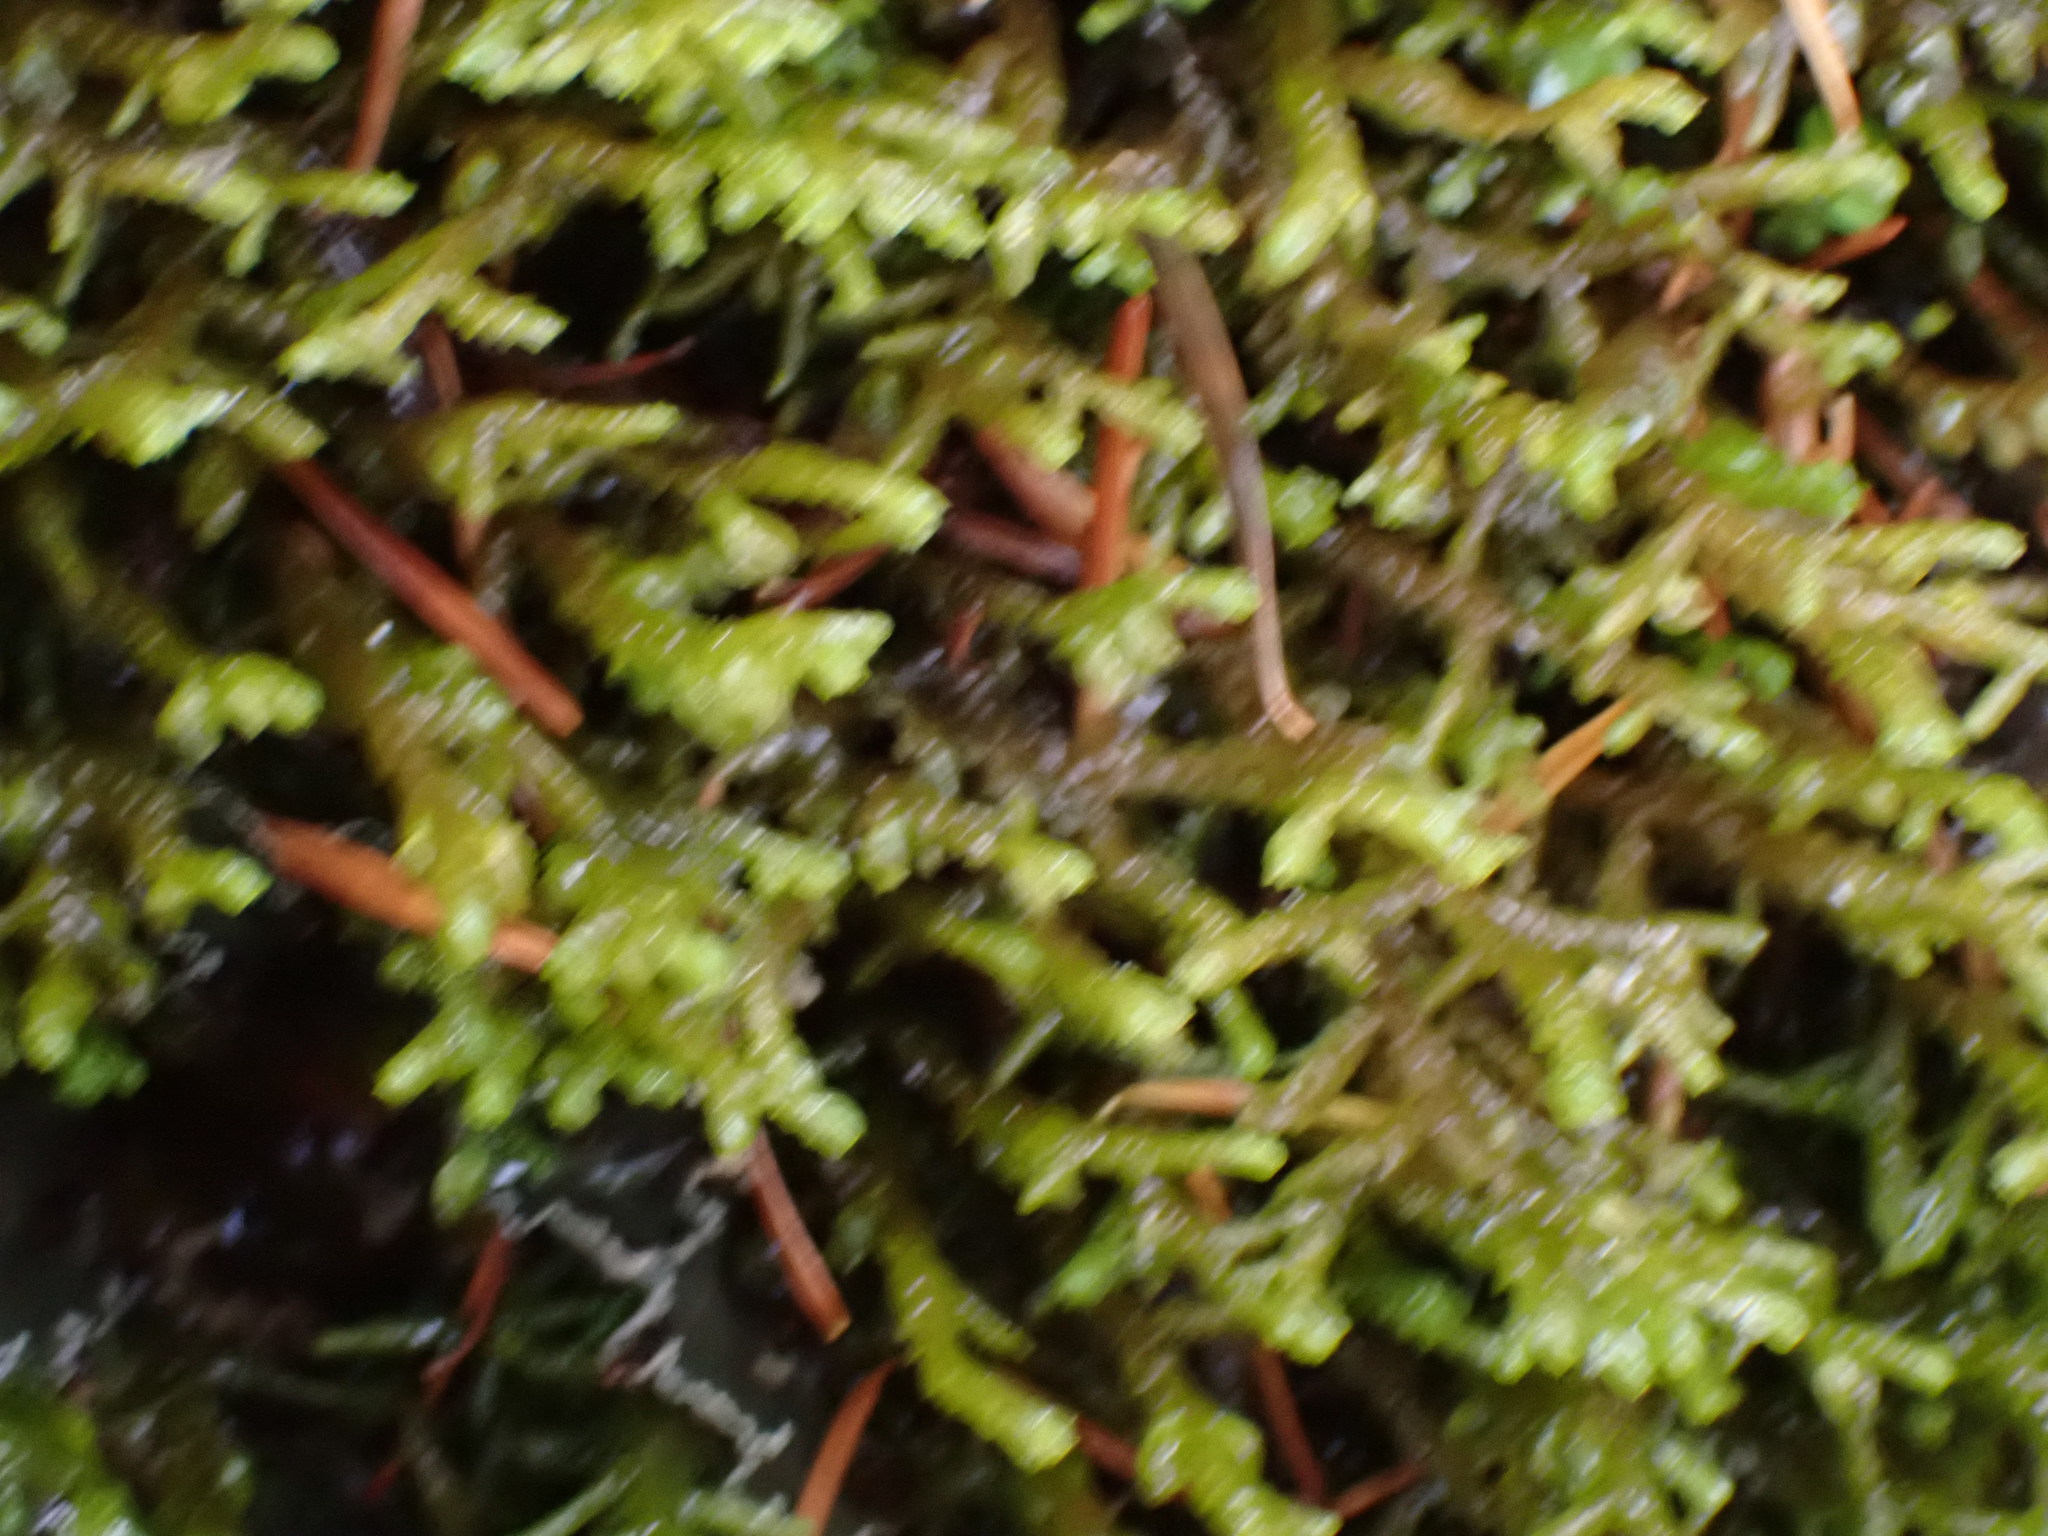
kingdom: Plantae
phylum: Marchantiophyta
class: Jungermanniopsida
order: Porellales
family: Porellaceae
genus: Porella
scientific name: Porella roellii
